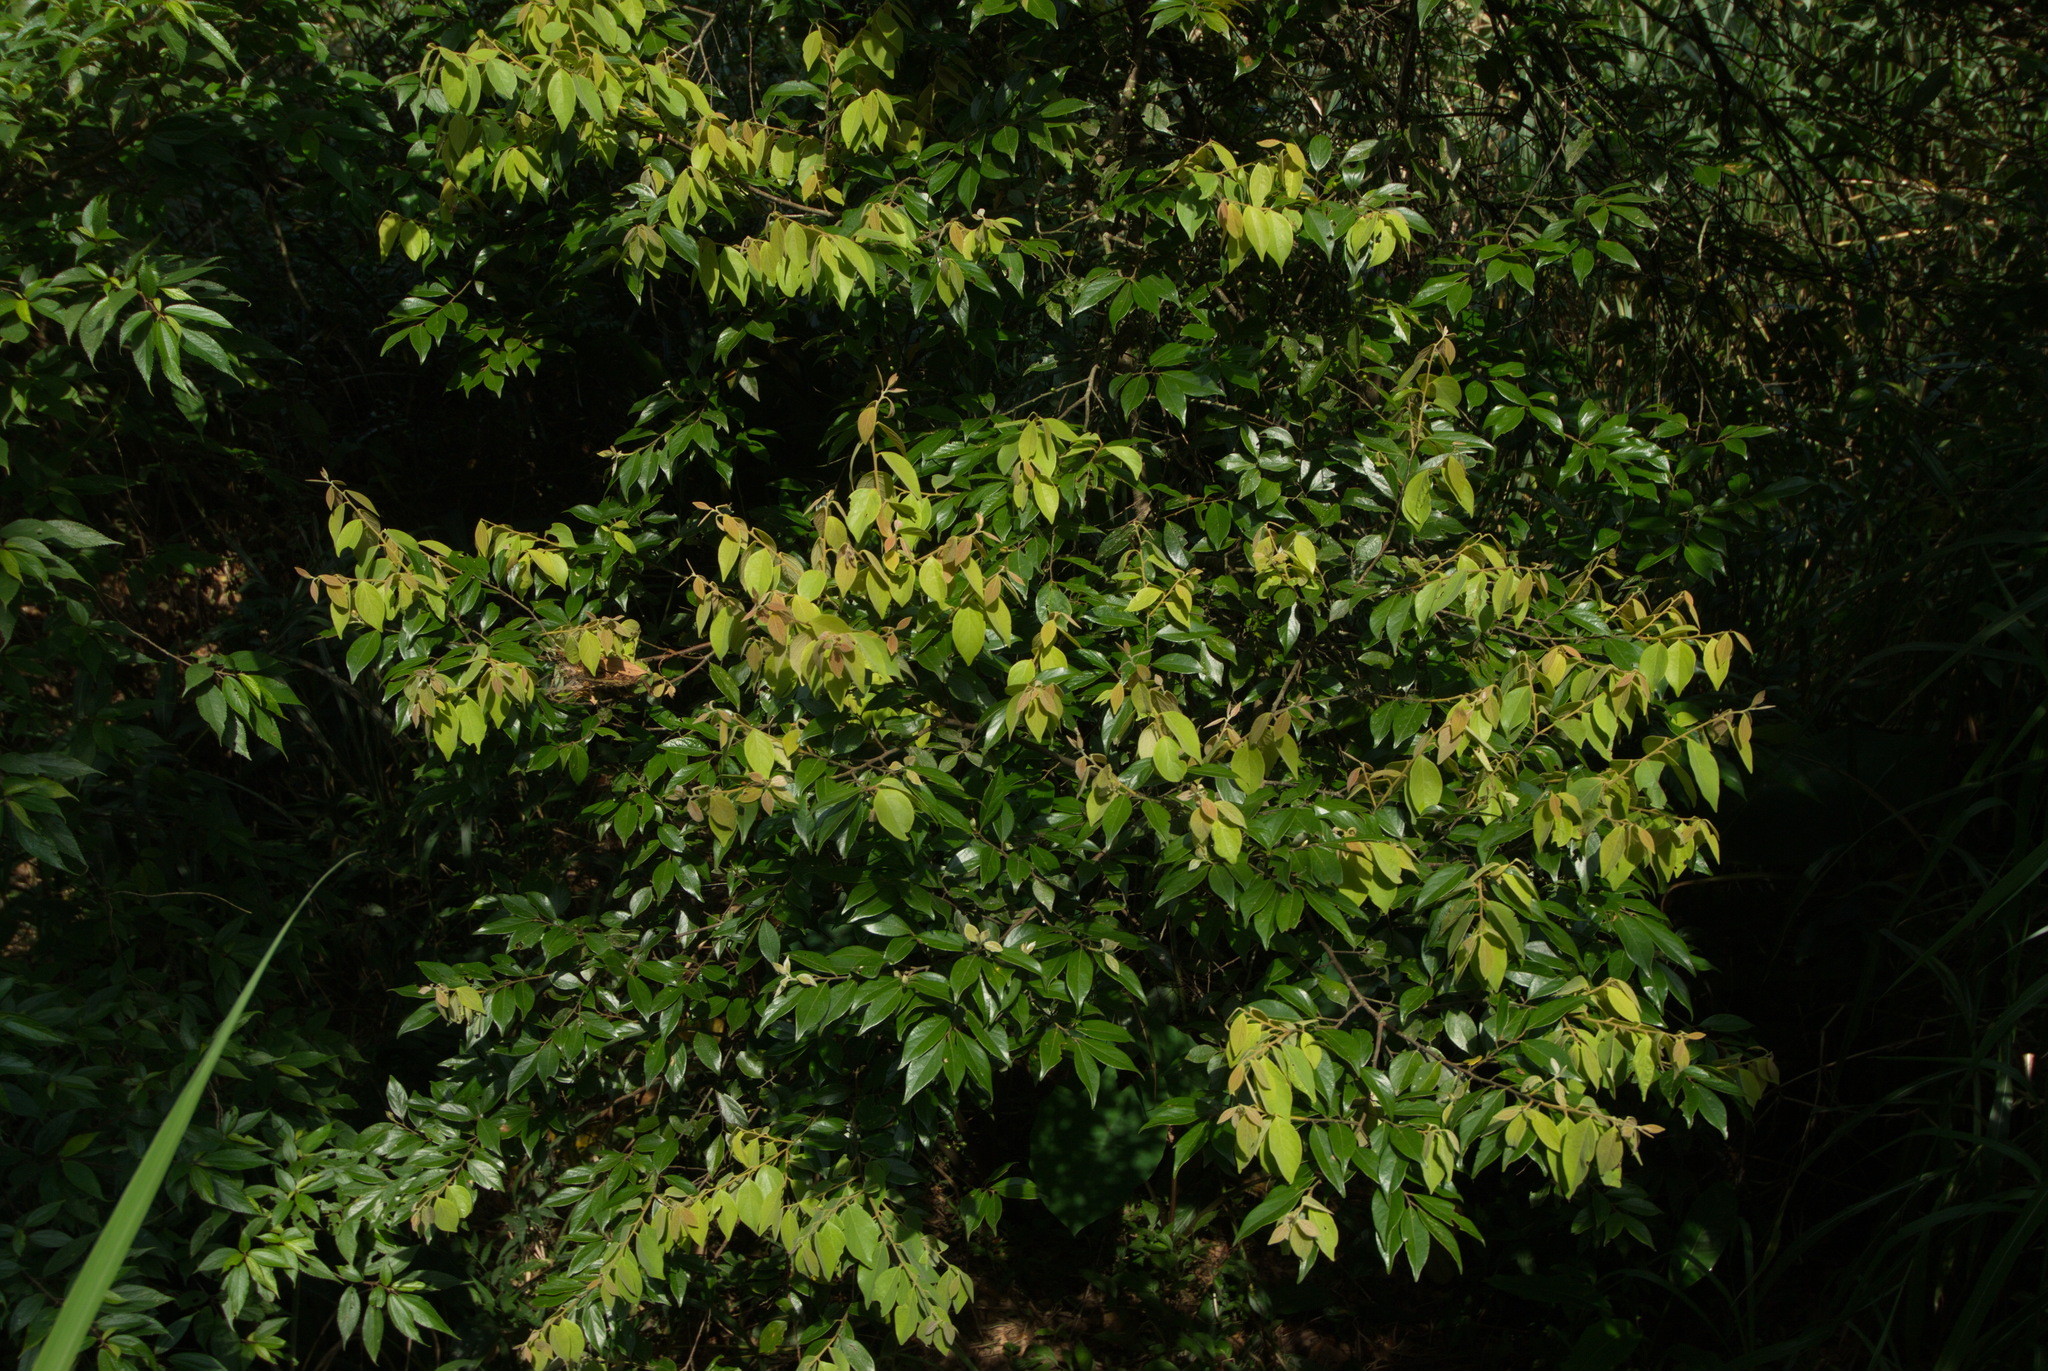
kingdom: Plantae
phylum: Tracheophyta
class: Magnoliopsida
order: Laurales
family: Lauraceae
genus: Lindera
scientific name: Lindera communis
